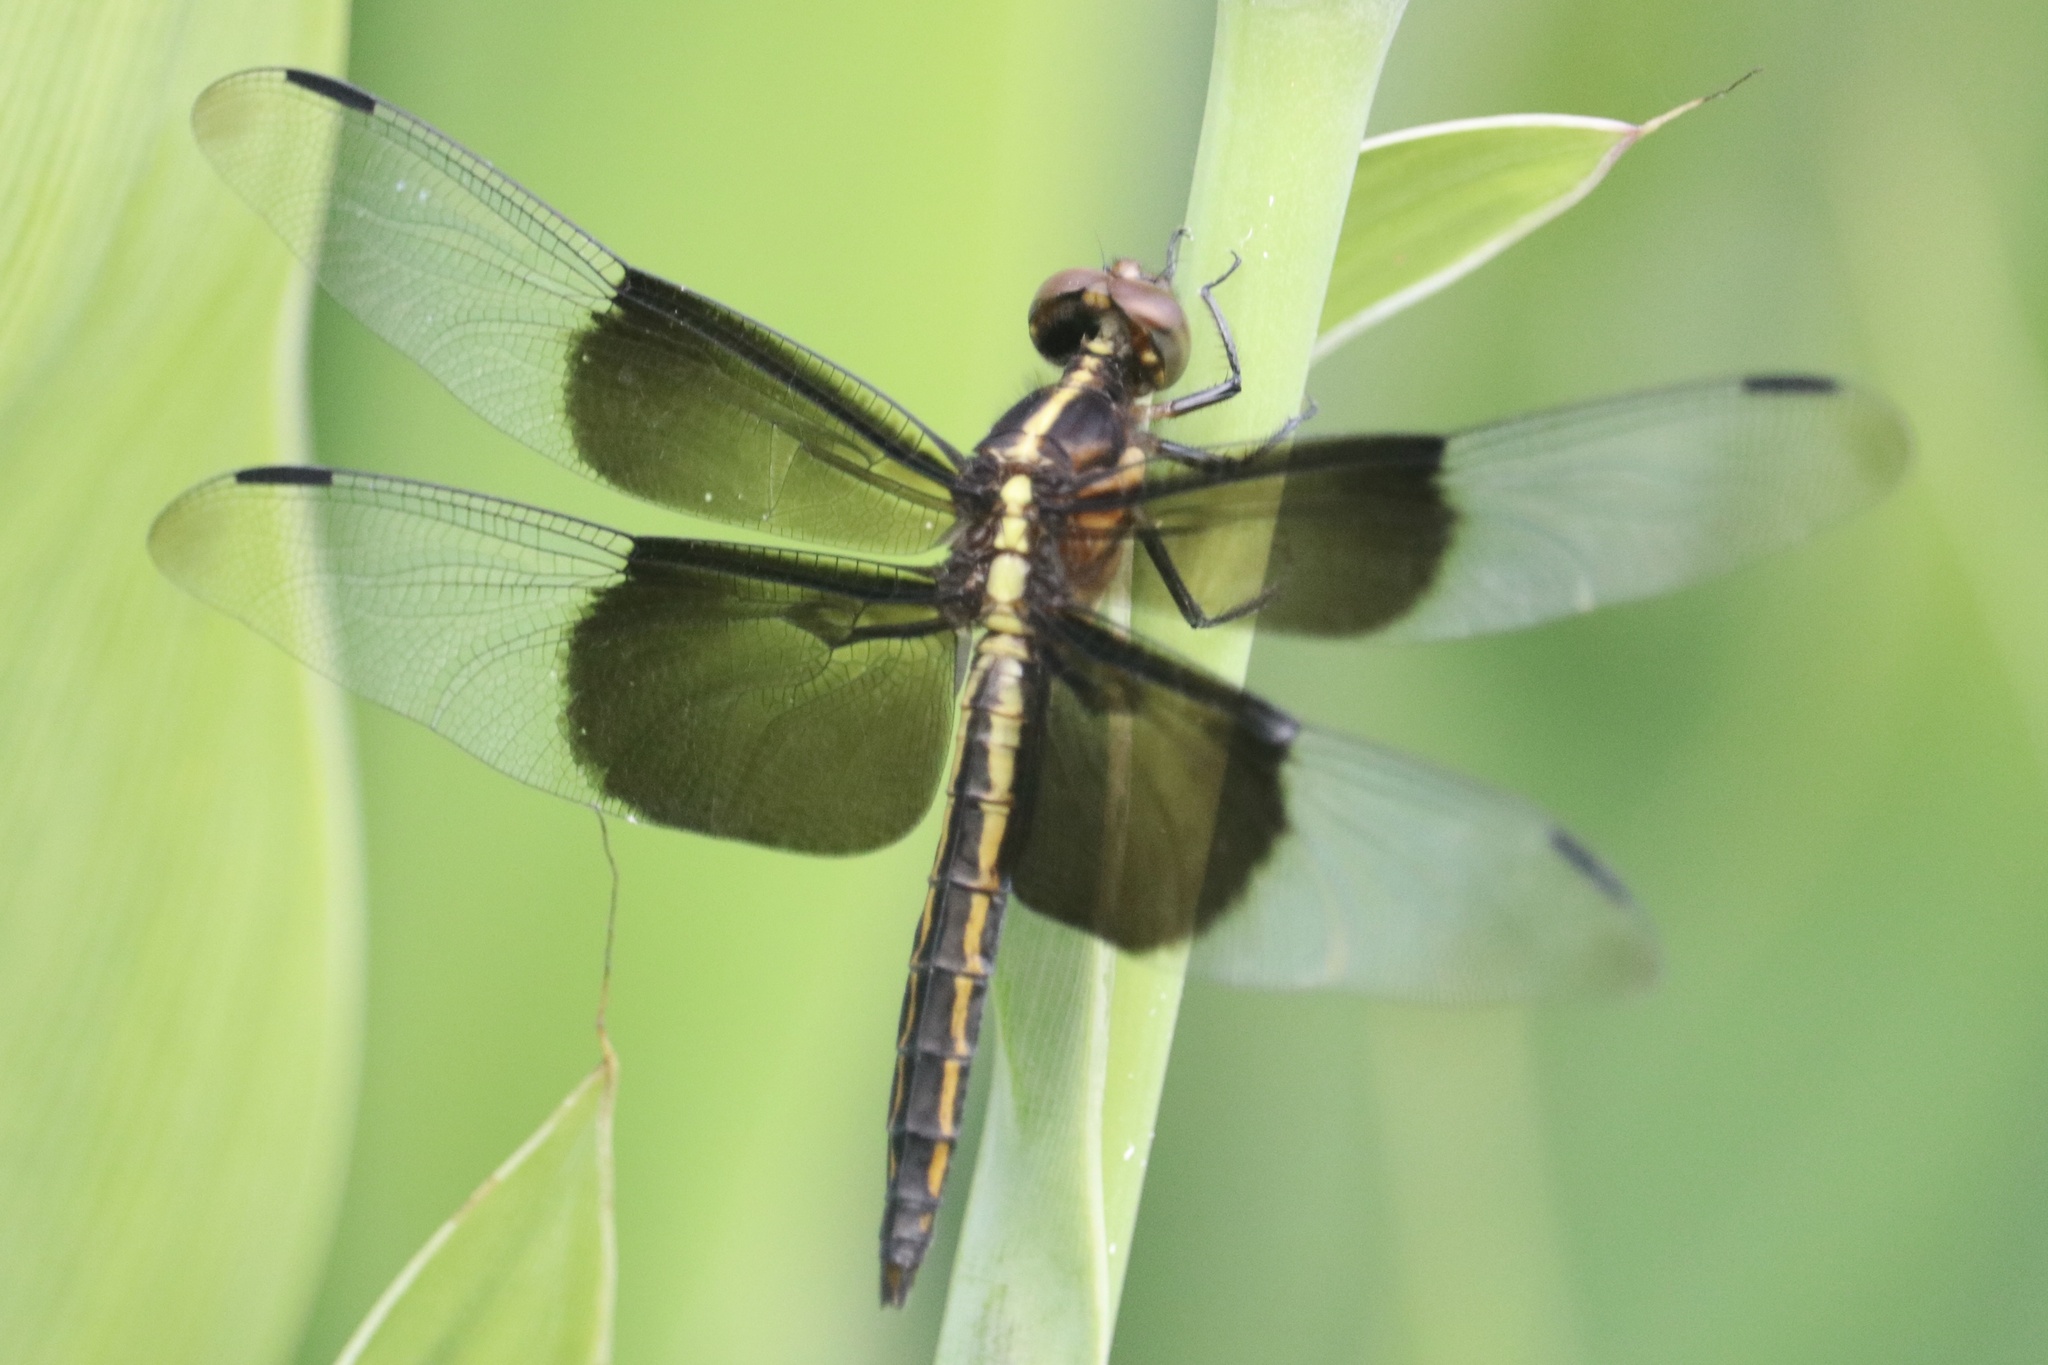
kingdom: Animalia
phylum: Arthropoda
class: Insecta
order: Odonata
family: Libellulidae
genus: Libellula
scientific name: Libellula luctuosa
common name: Widow skimmer
